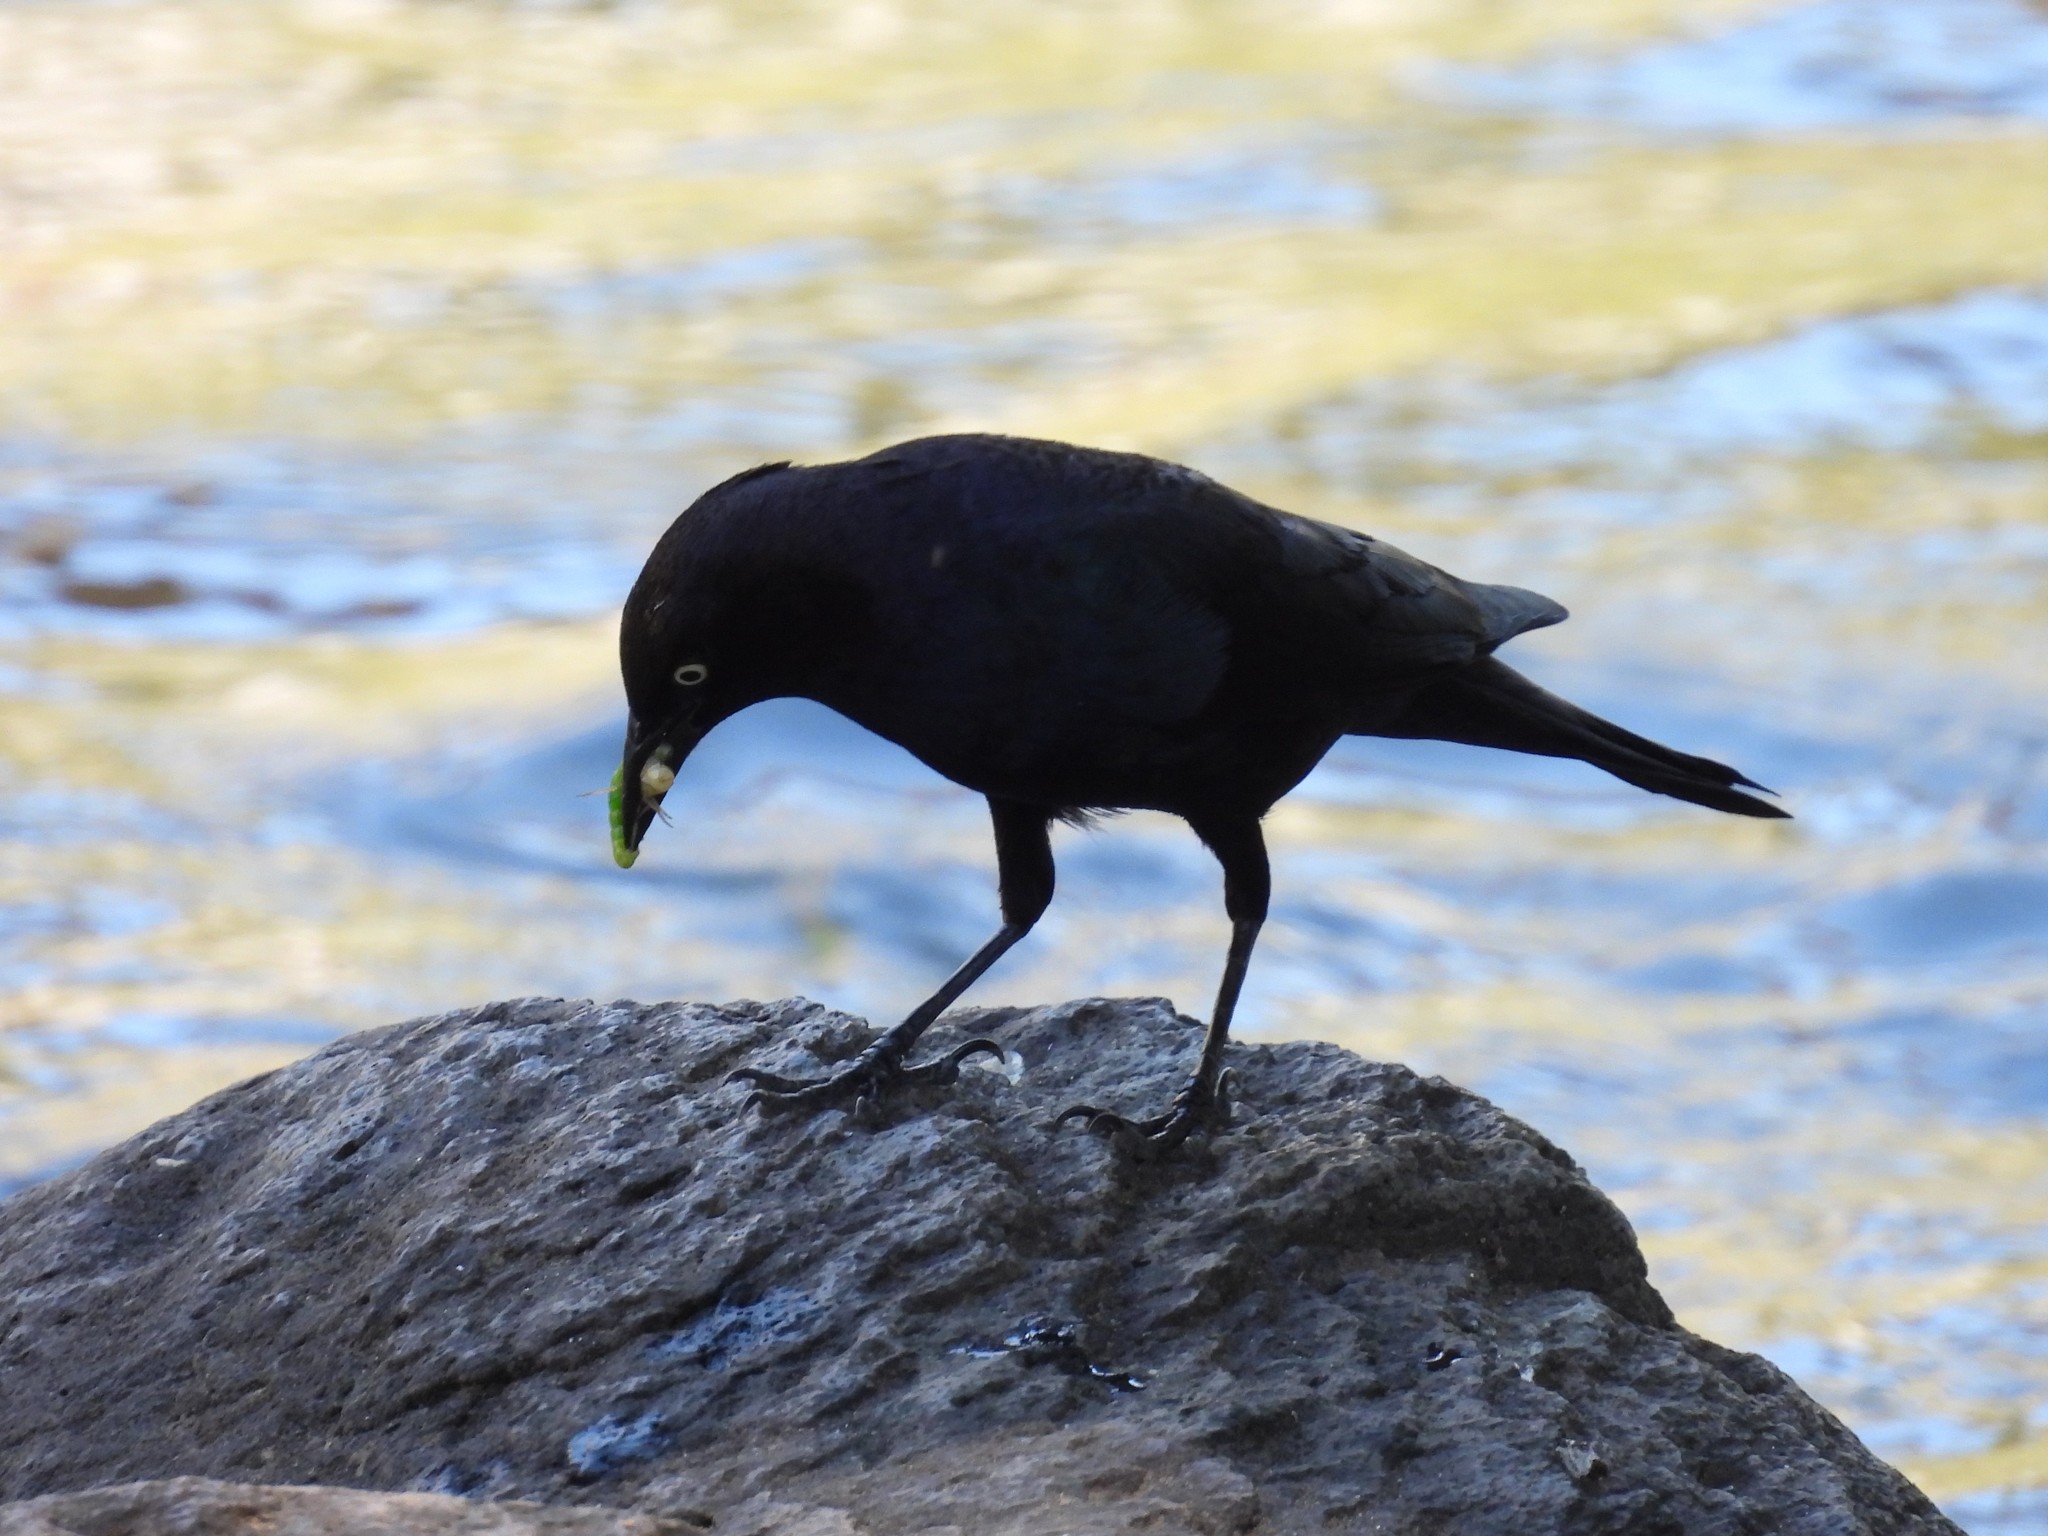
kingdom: Animalia
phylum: Chordata
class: Aves
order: Passeriformes
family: Icteridae
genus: Euphagus
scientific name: Euphagus cyanocephalus
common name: Brewer's blackbird
